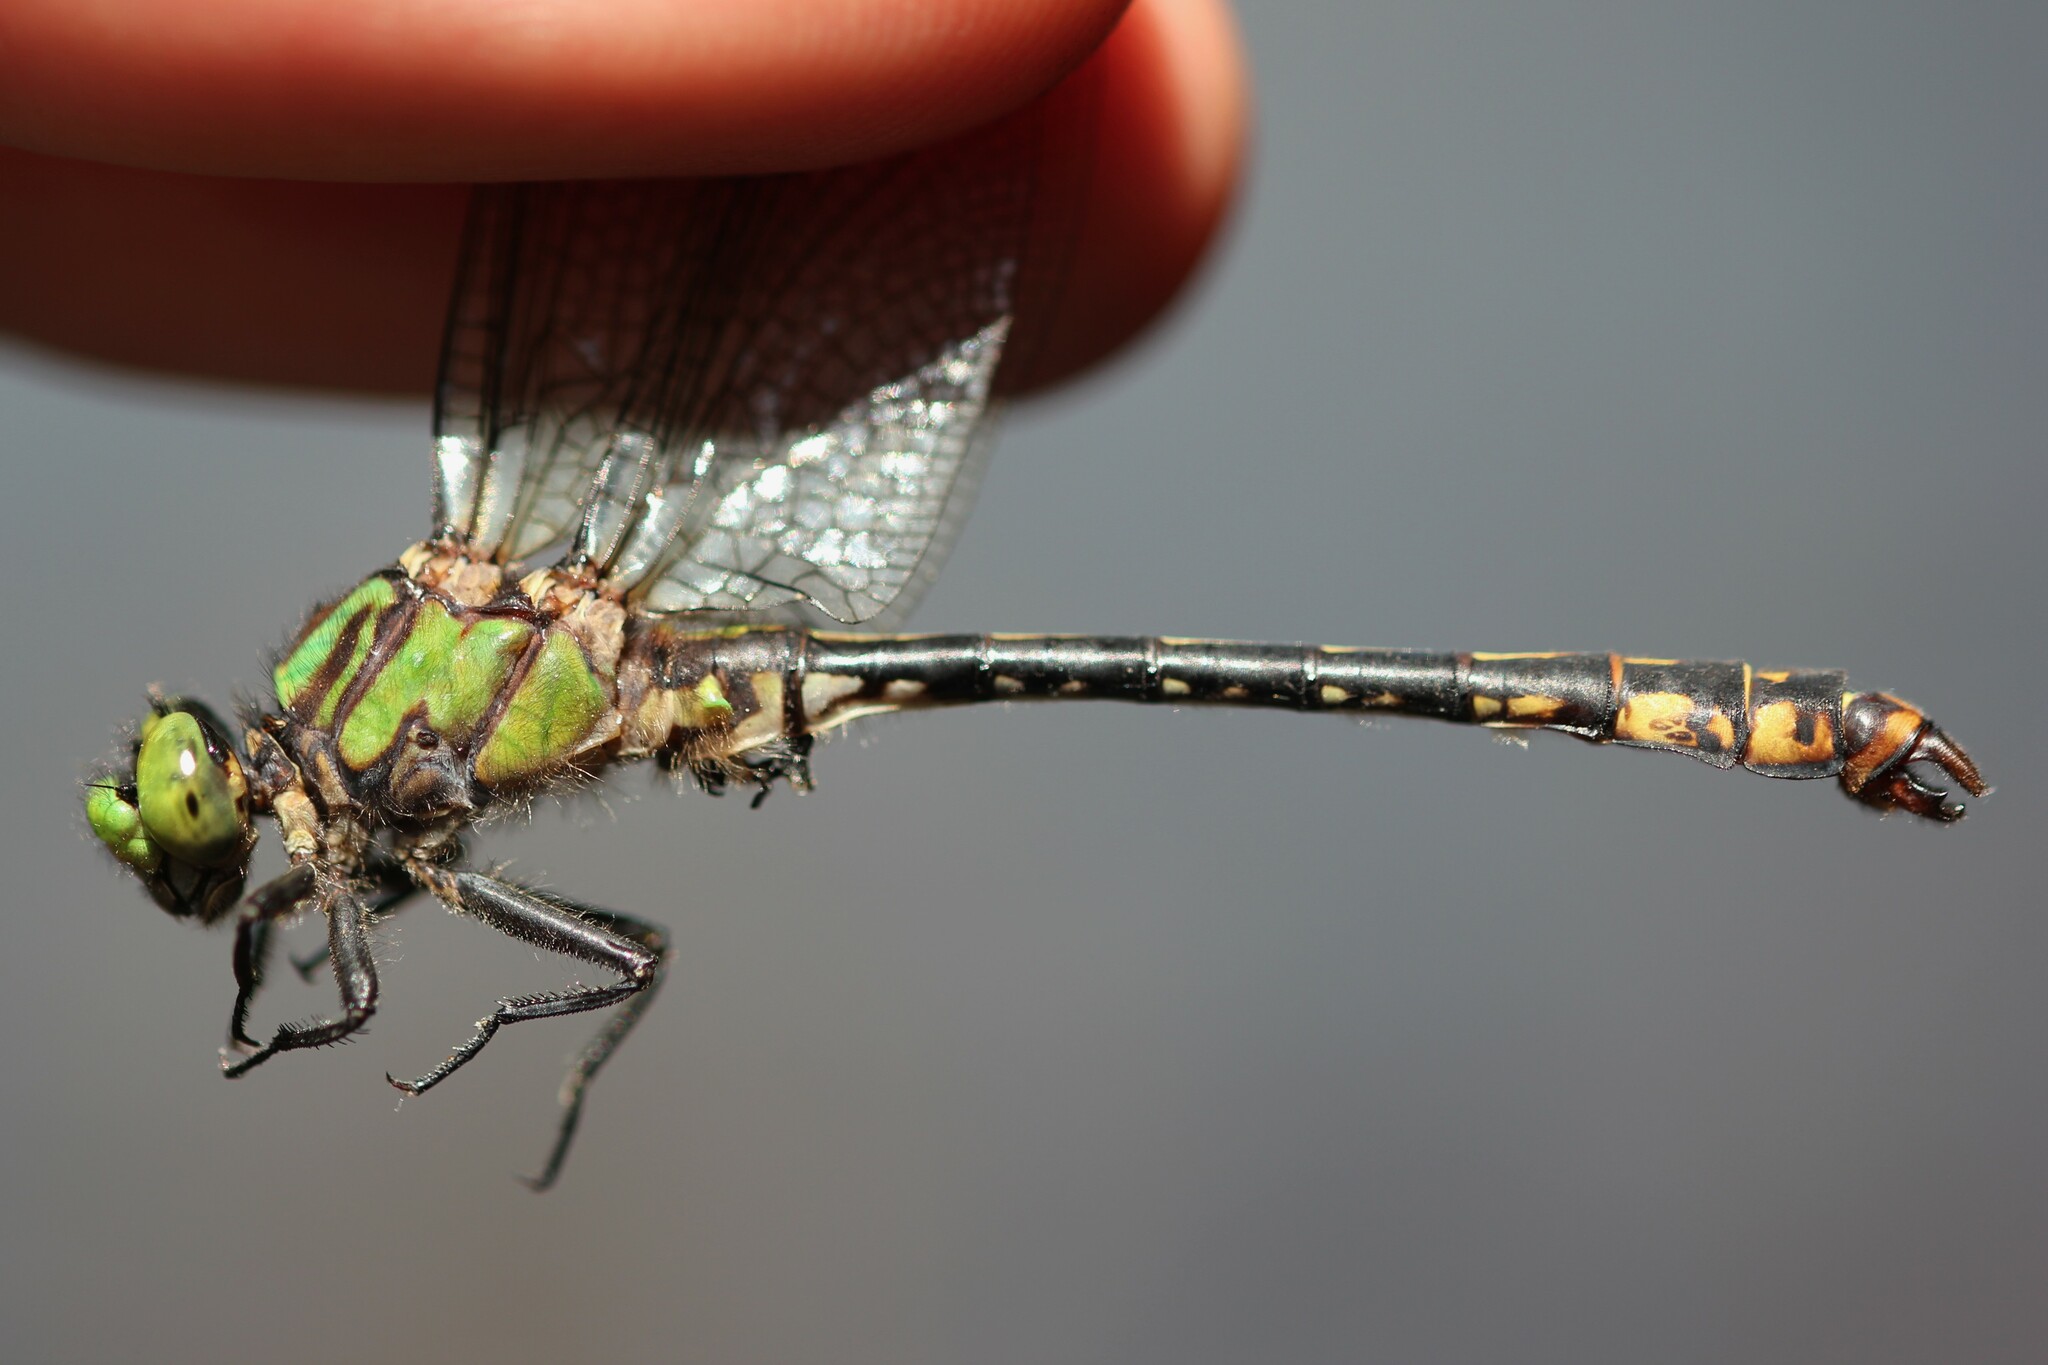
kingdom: Animalia
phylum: Arthropoda
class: Insecta
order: Odonata
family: Gomphidae
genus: Ophiogomphus
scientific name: Ophiogomphus mainensis
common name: Maine snaketail
